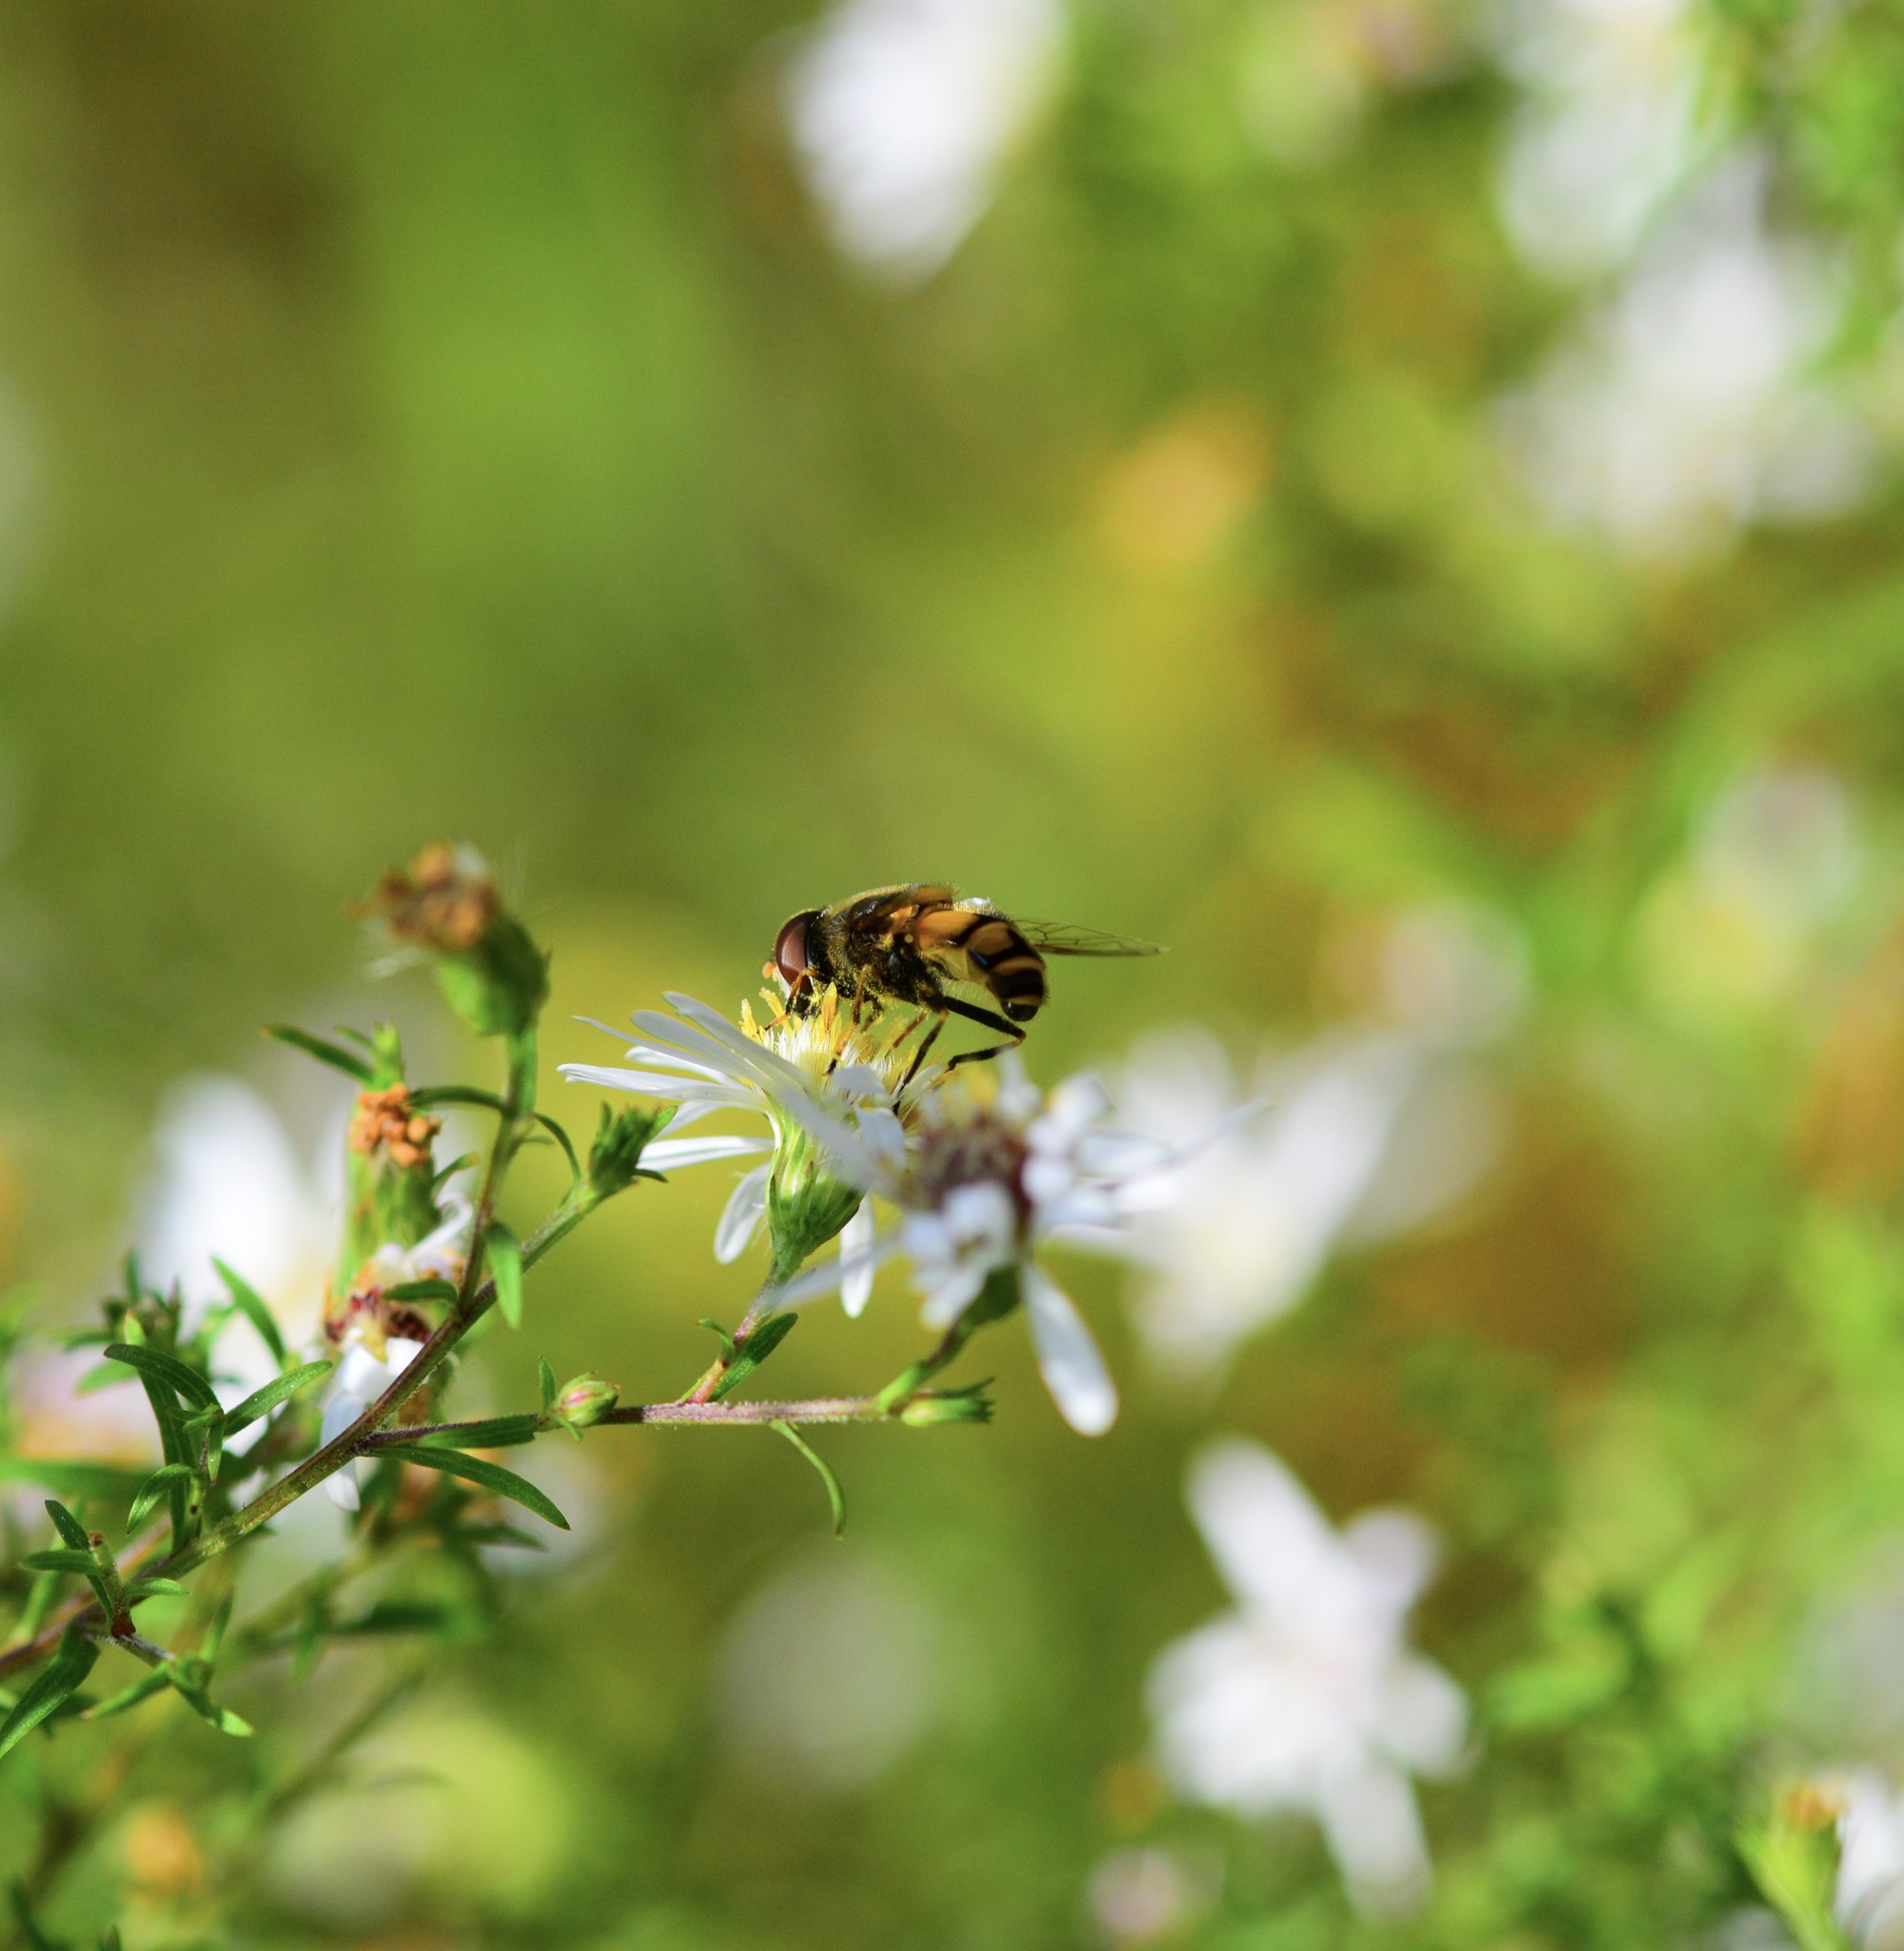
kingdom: Animalia
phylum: Arthropoda
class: Insecta
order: Diptera
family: Syrphidae
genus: Eristalis
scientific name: Eristalis transversa
